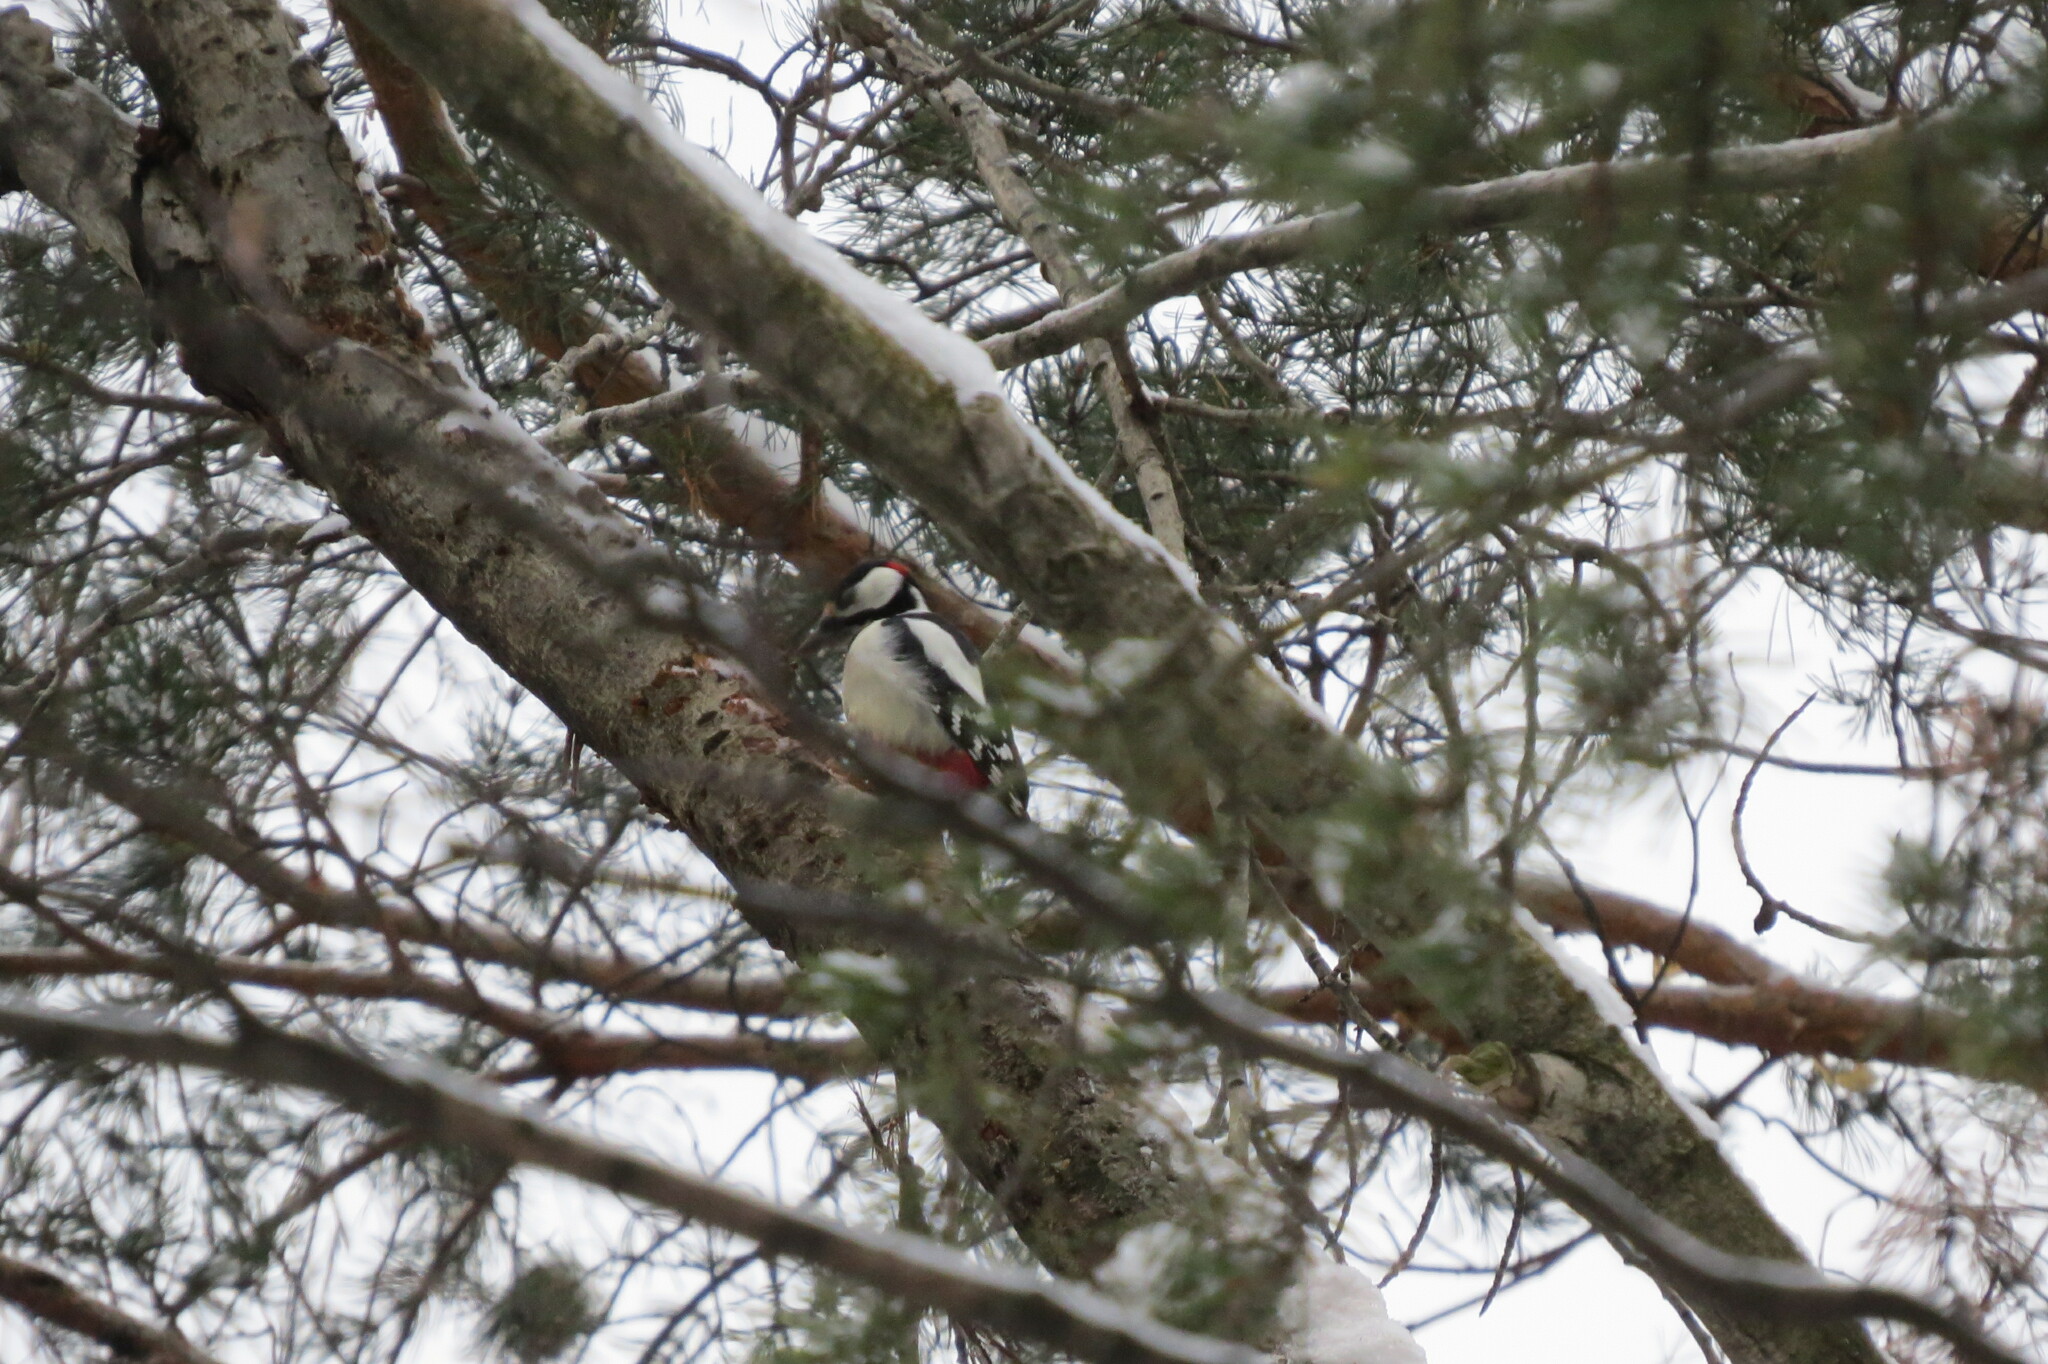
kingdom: Animalia
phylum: Chordata
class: Aves
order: Piciformes
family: Picidae
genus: Dendrocopos
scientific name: Dendrocopos major
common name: Great spotted woodpecker
